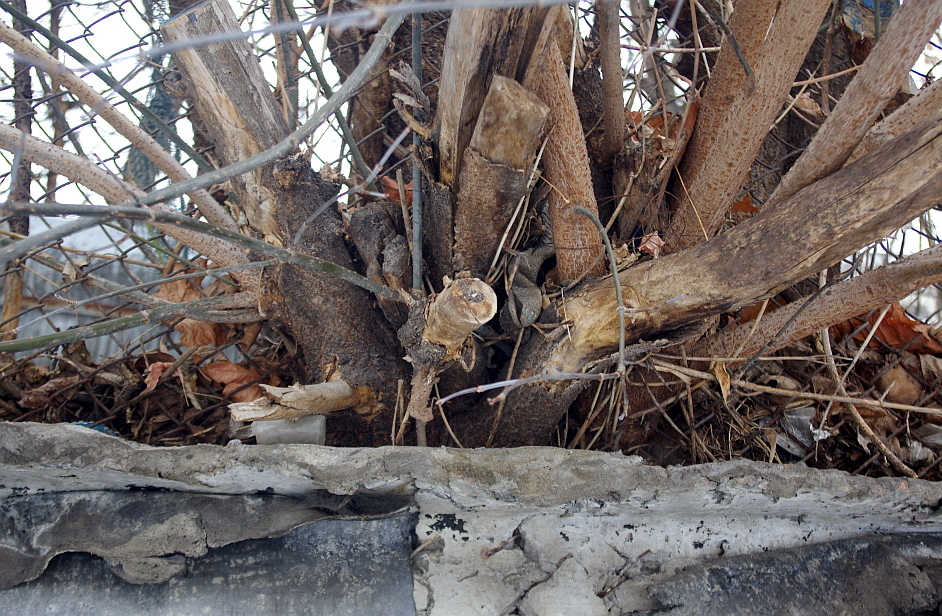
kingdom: Plantae
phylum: Tracheophyta
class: Magnoliopsida
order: Sapindales
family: Sapindaceae
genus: Acer
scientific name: Acer negundo
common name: Ashleaf maple
